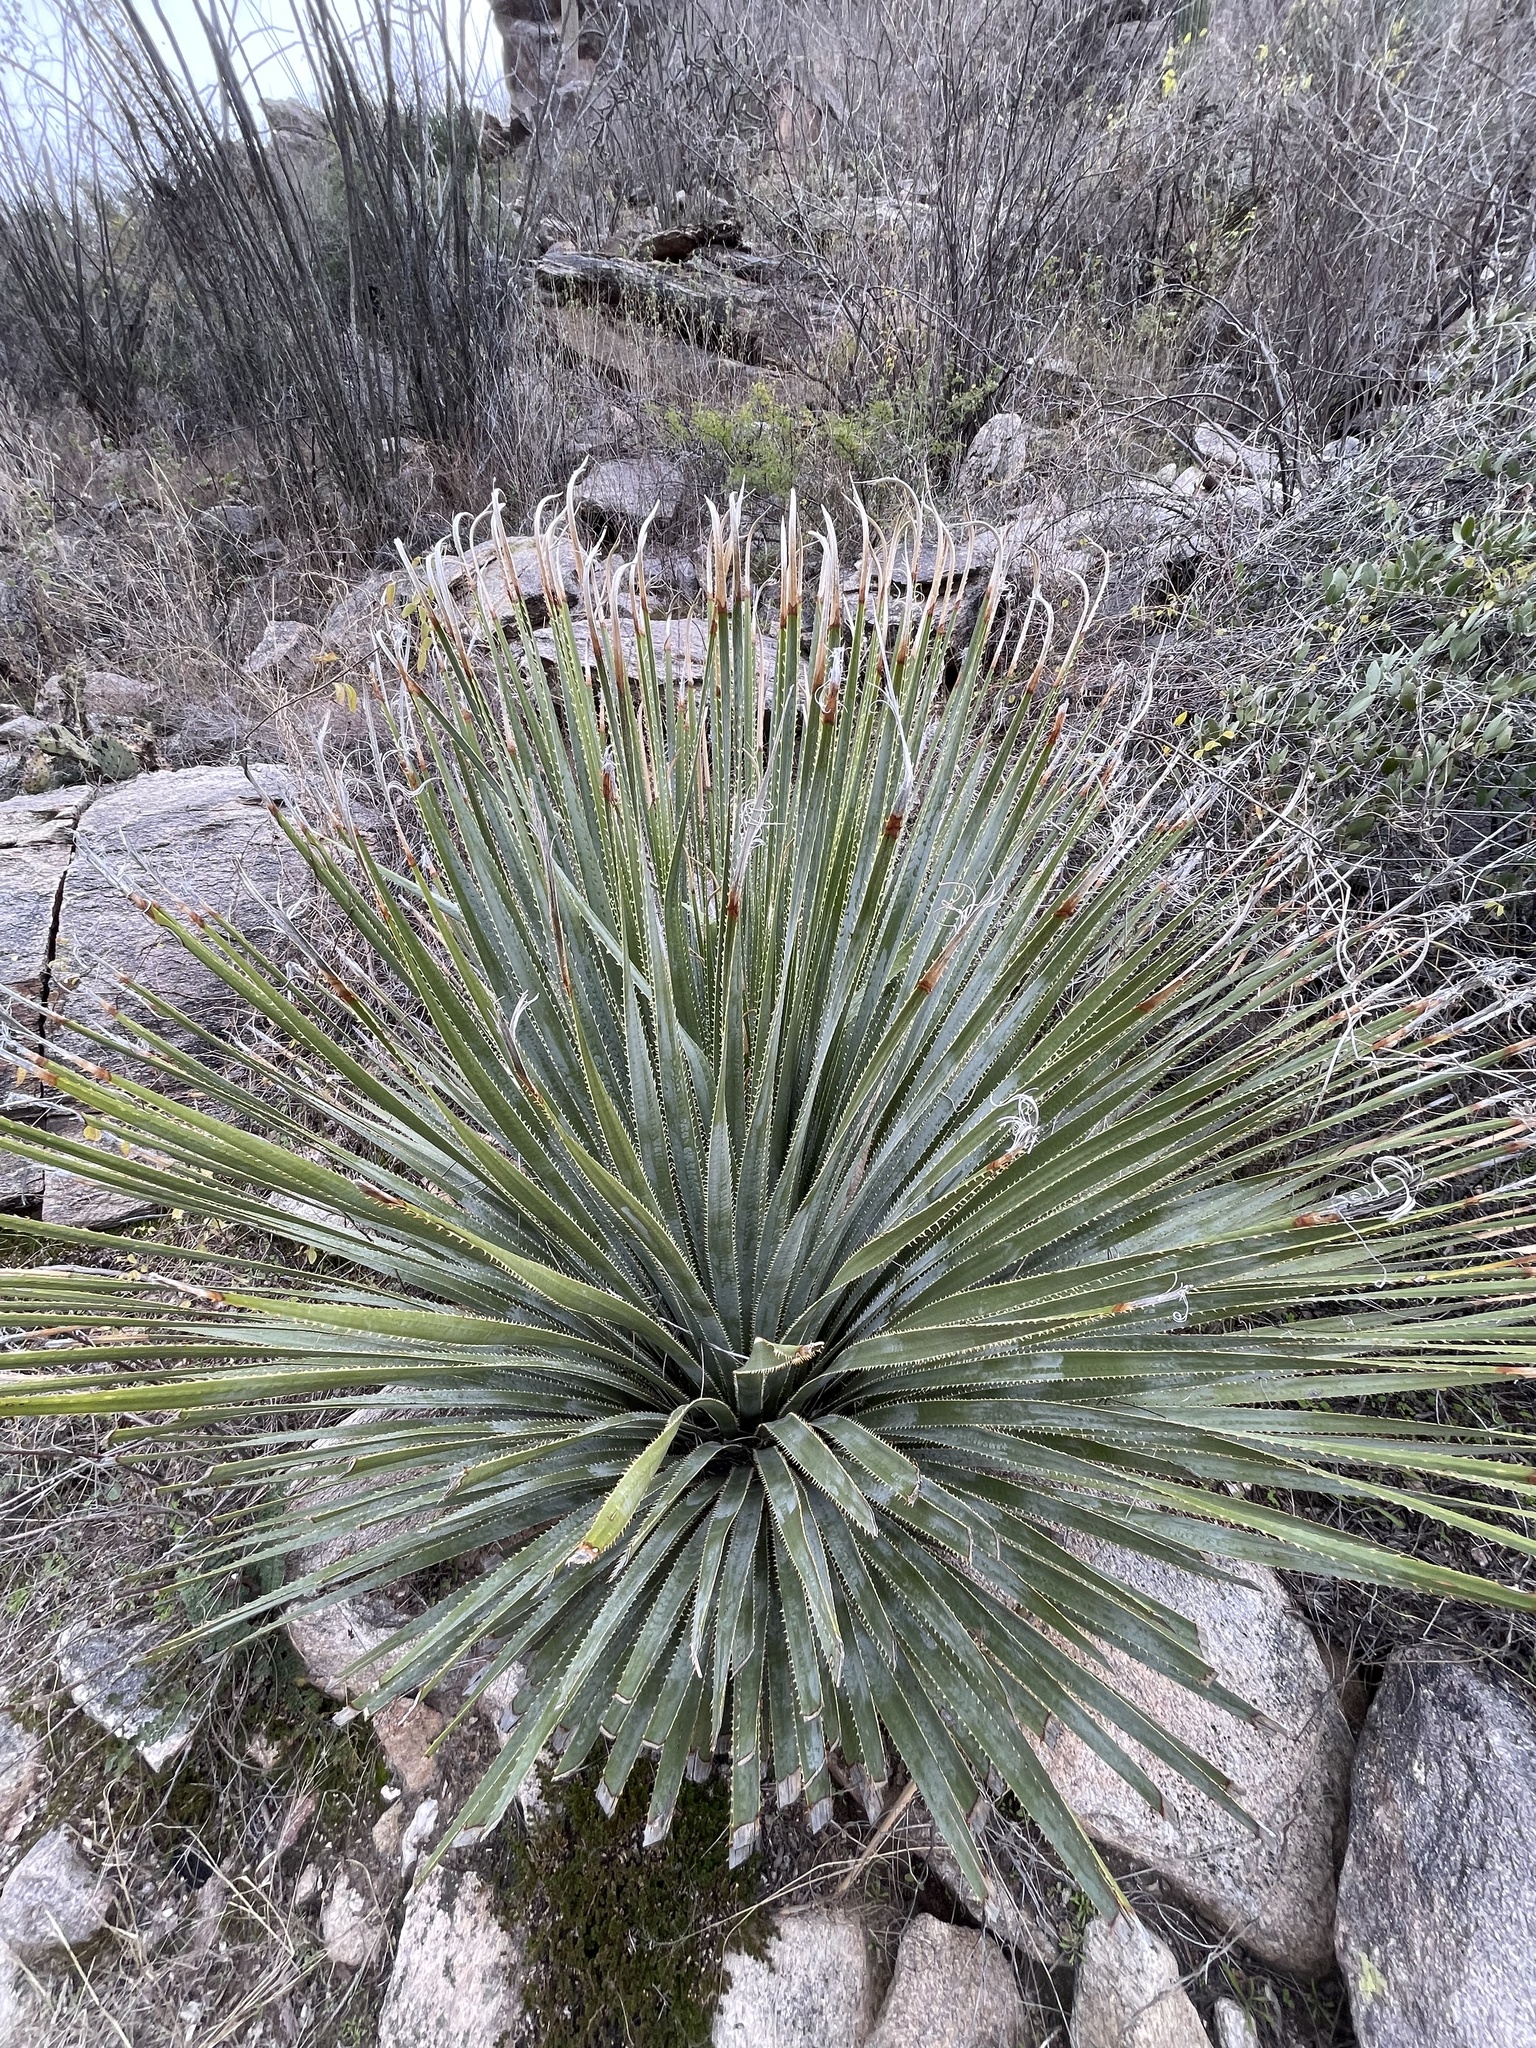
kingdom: Plantae
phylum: Tracheophyta
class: Liliopsida
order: Asparagales
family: Asparagaceae
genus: Dasylirion
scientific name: Dasylirion wheeleri
